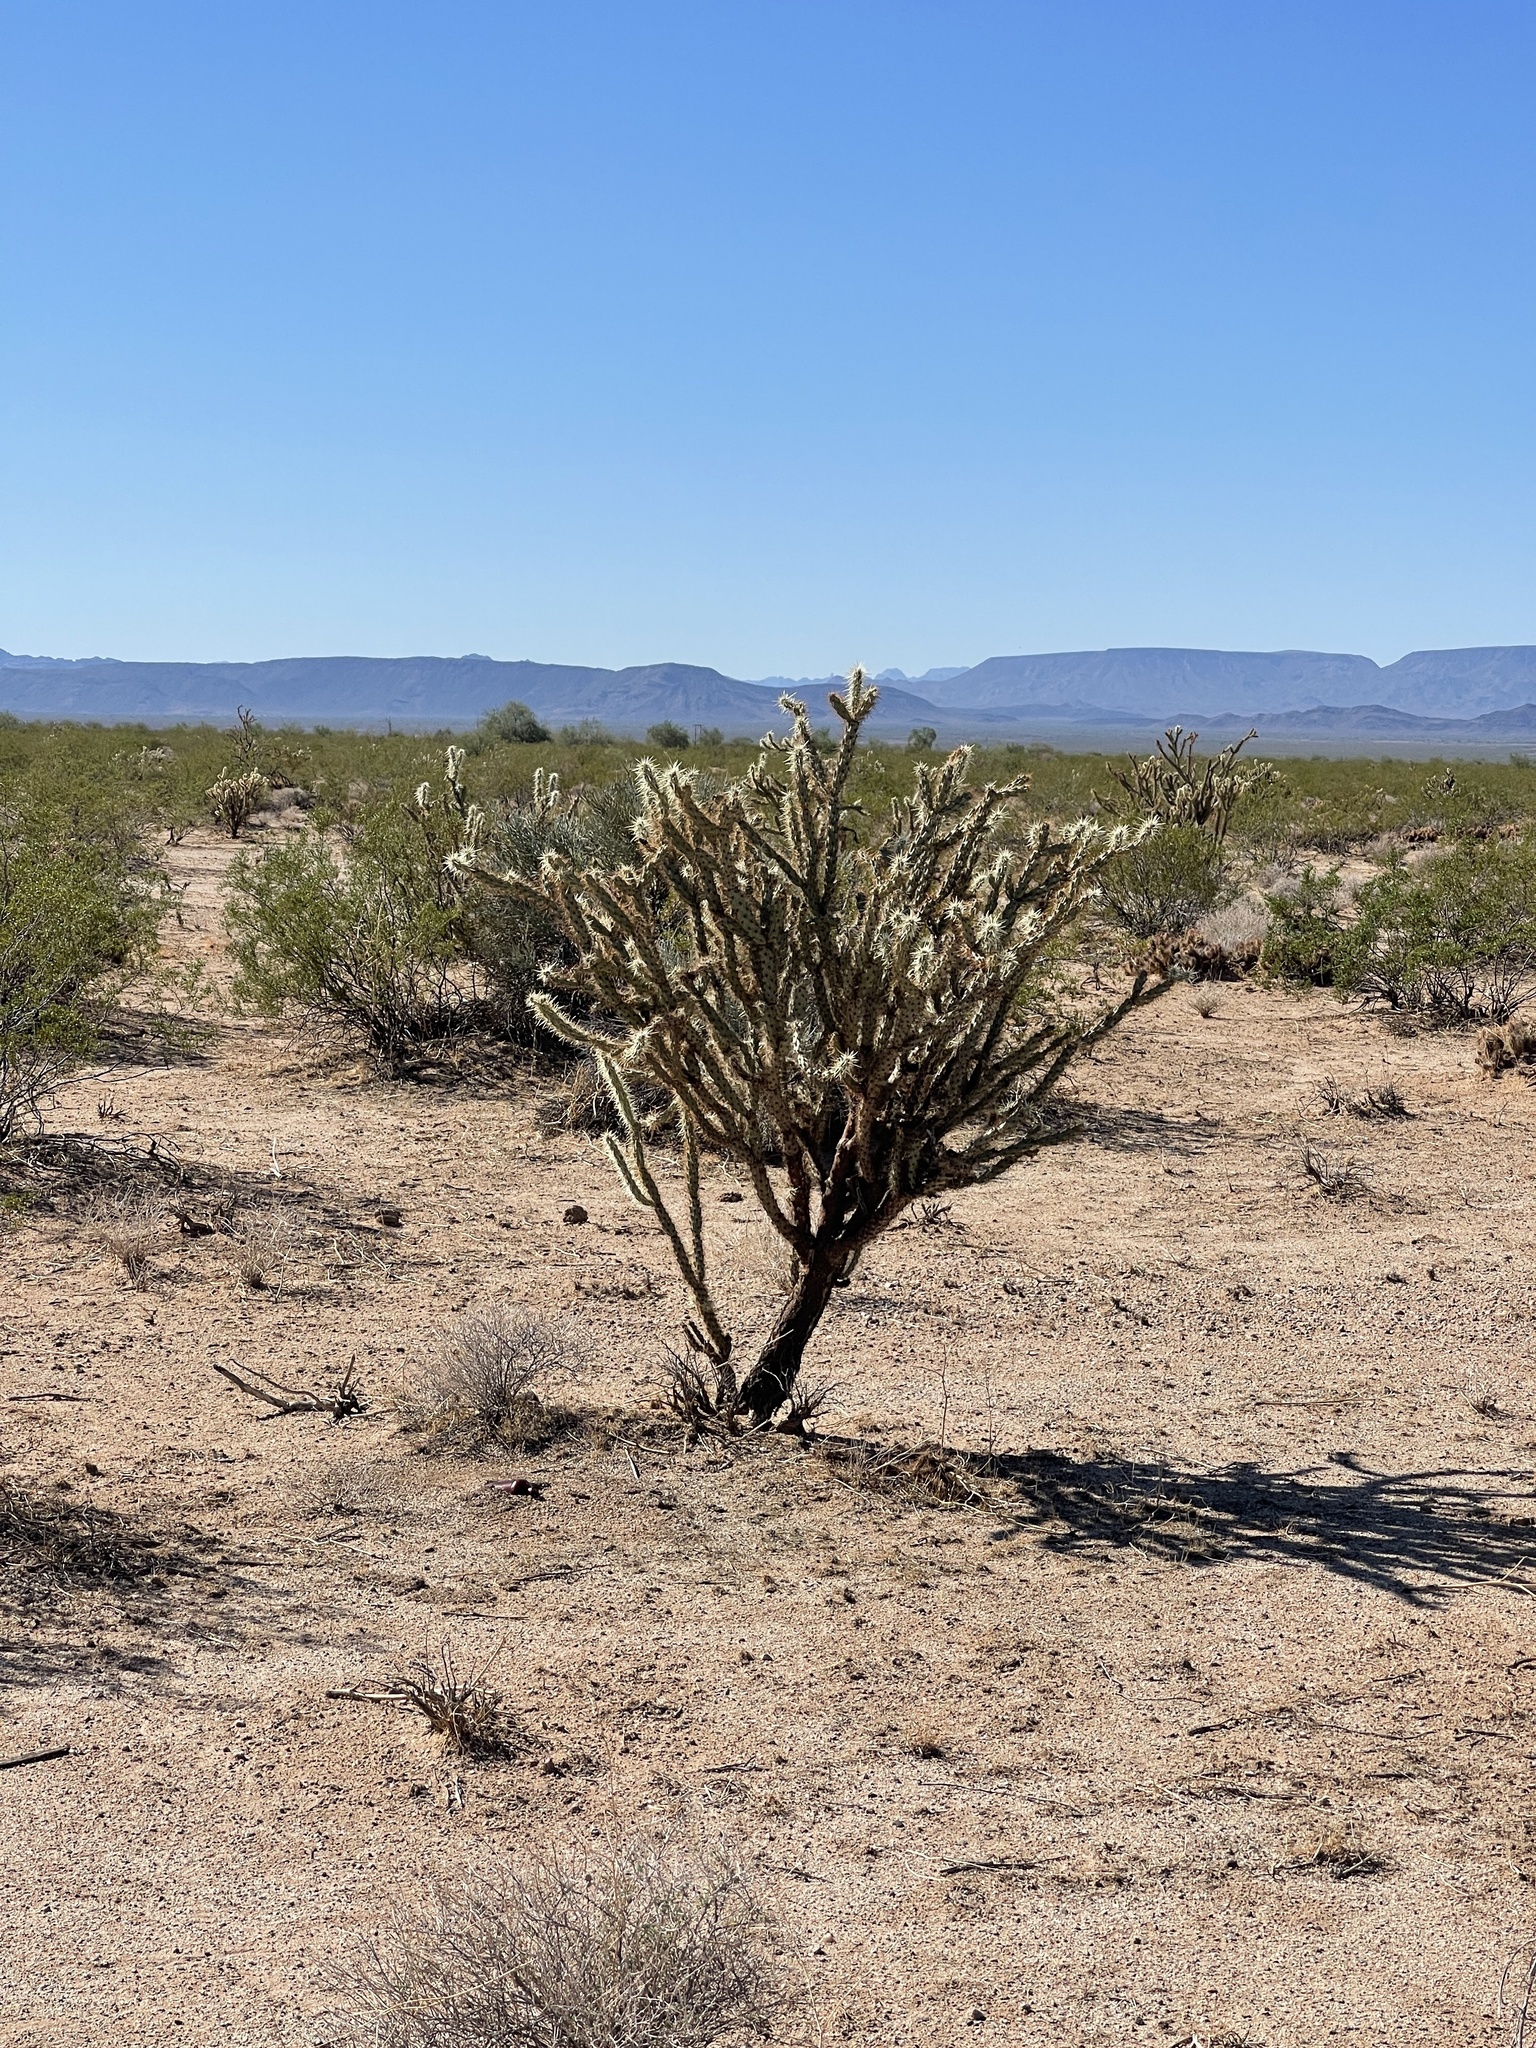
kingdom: Plantae
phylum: Tracheophyta
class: Magnoliopsida
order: Caryophyllales
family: Cactaceae
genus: Cylindropuntia
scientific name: Cylindropuntia acanthocarpa
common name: Buckhorn cholla
